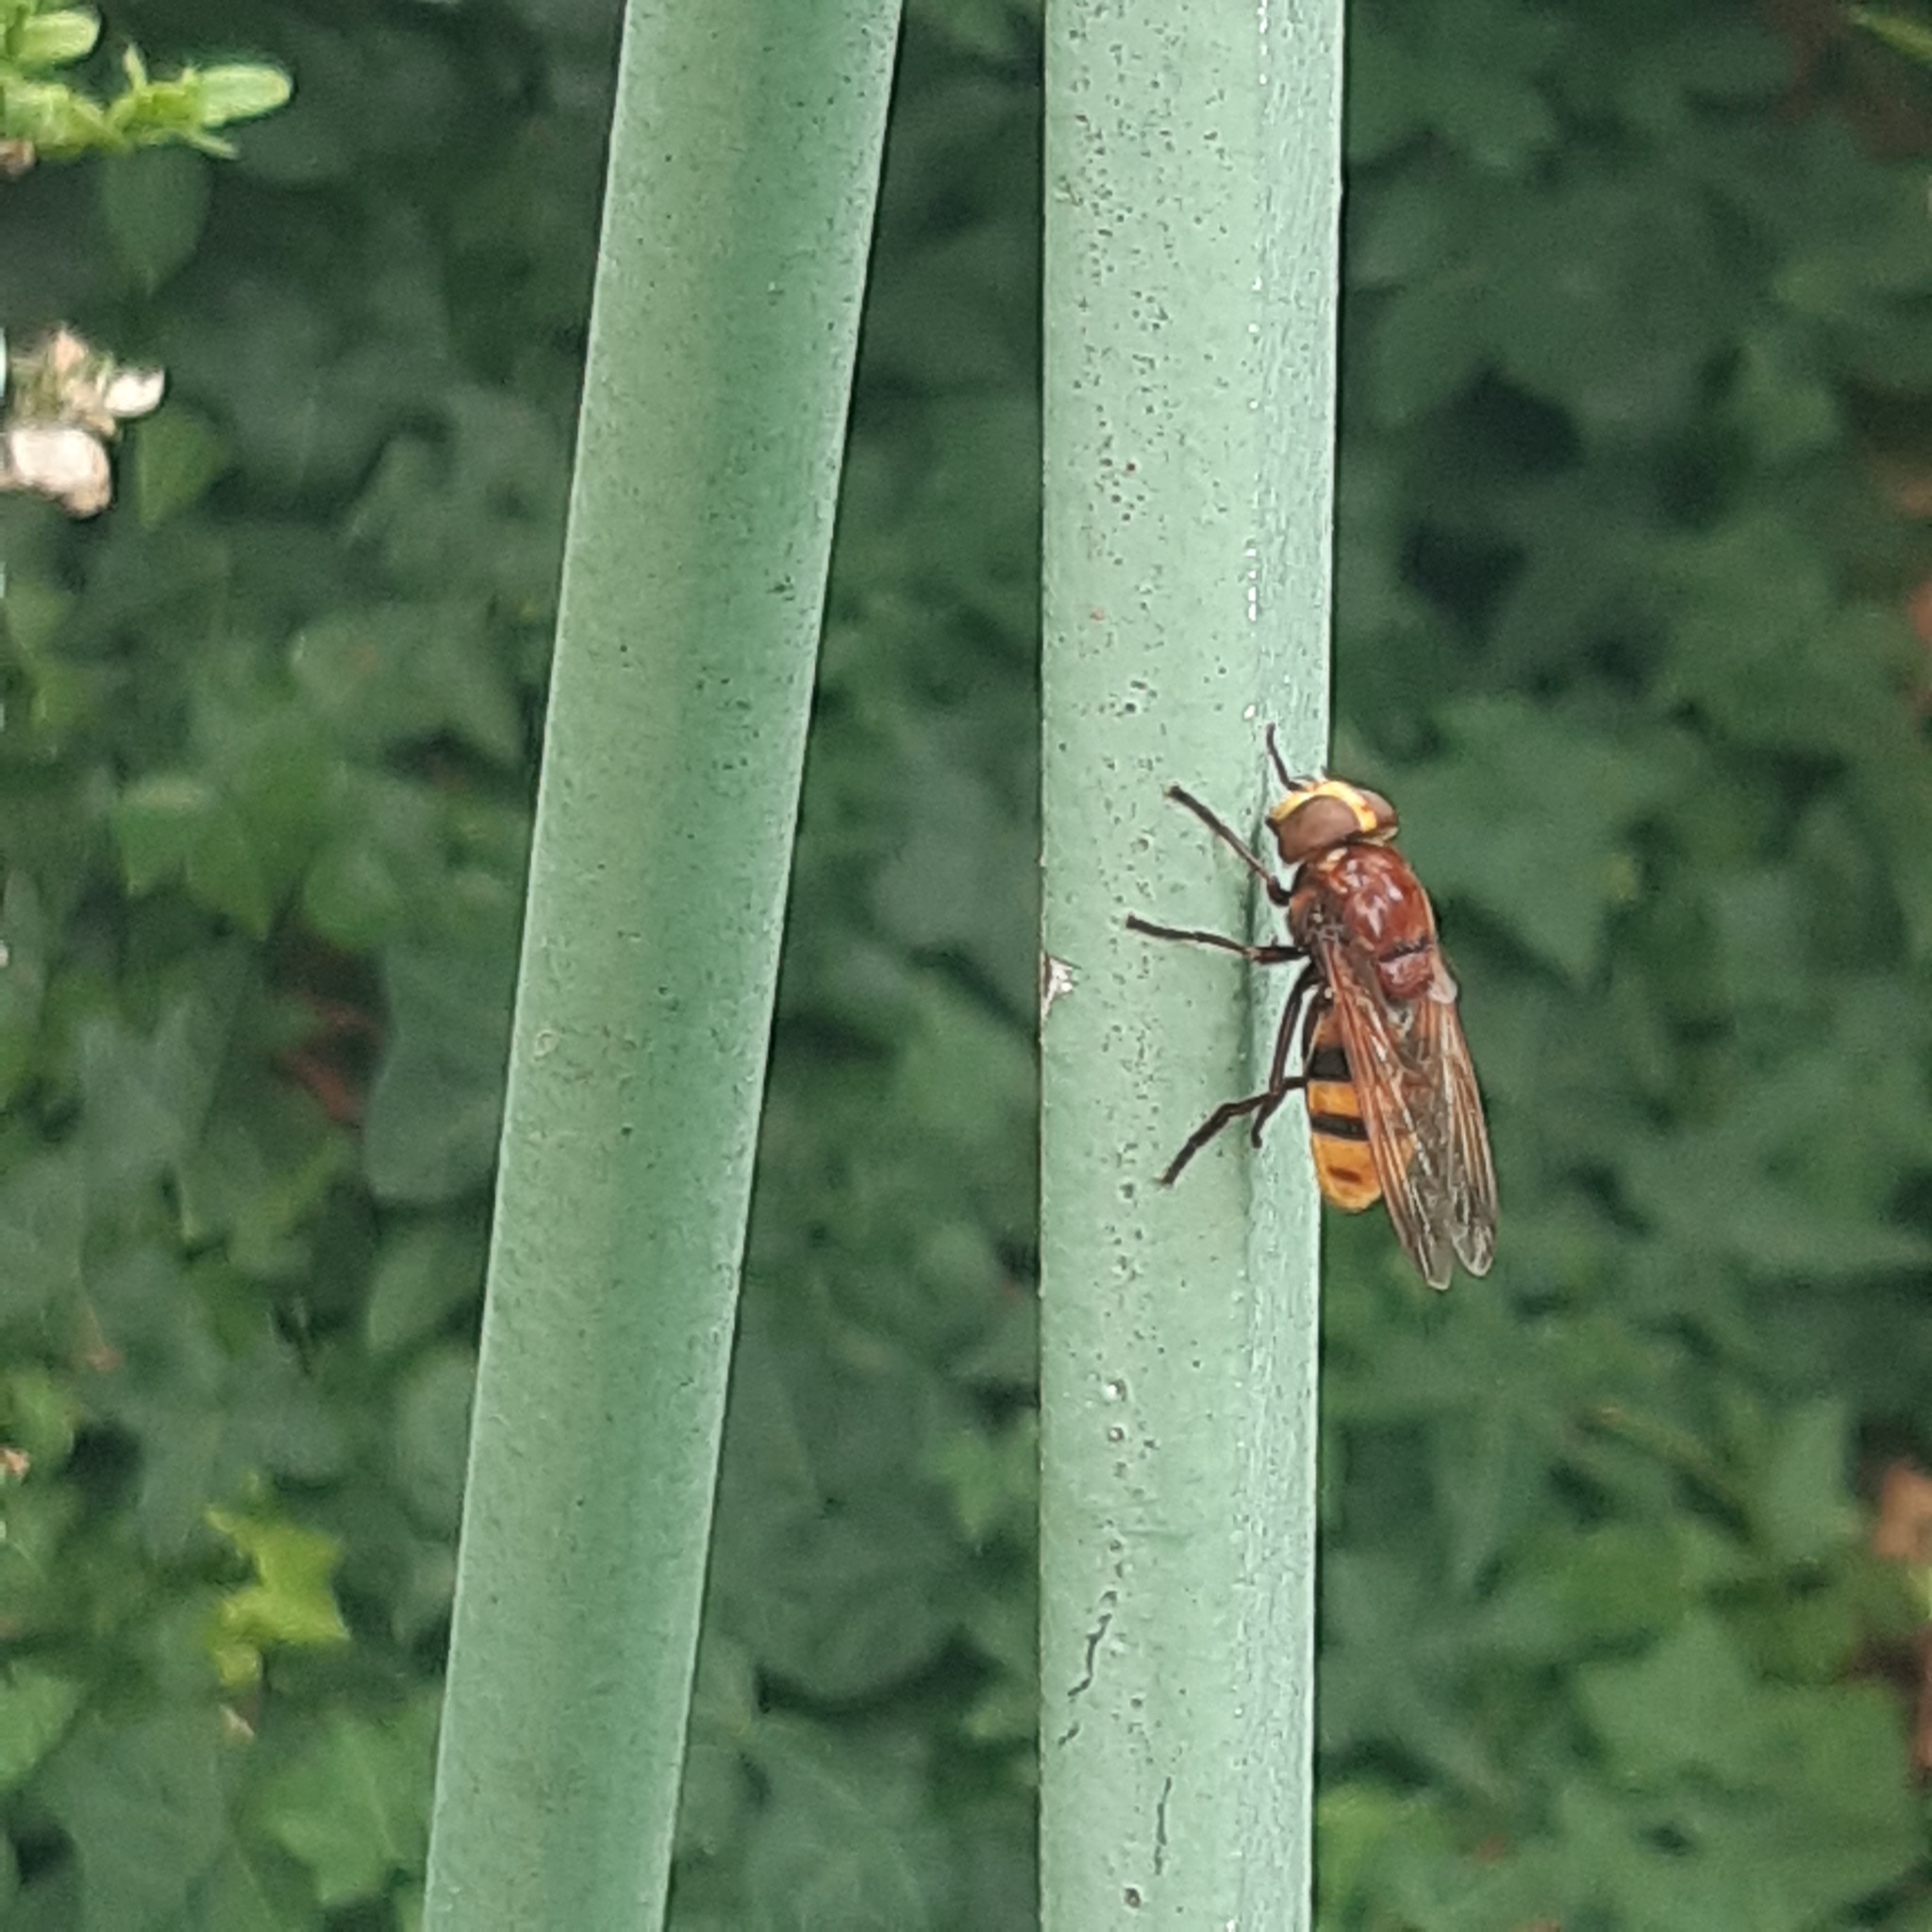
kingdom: Animalia
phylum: Arthropoda
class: Insecta
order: Diptera
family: Syrphidae
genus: Volucella
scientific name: Volucella zonaria
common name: Hornet hoverfly
